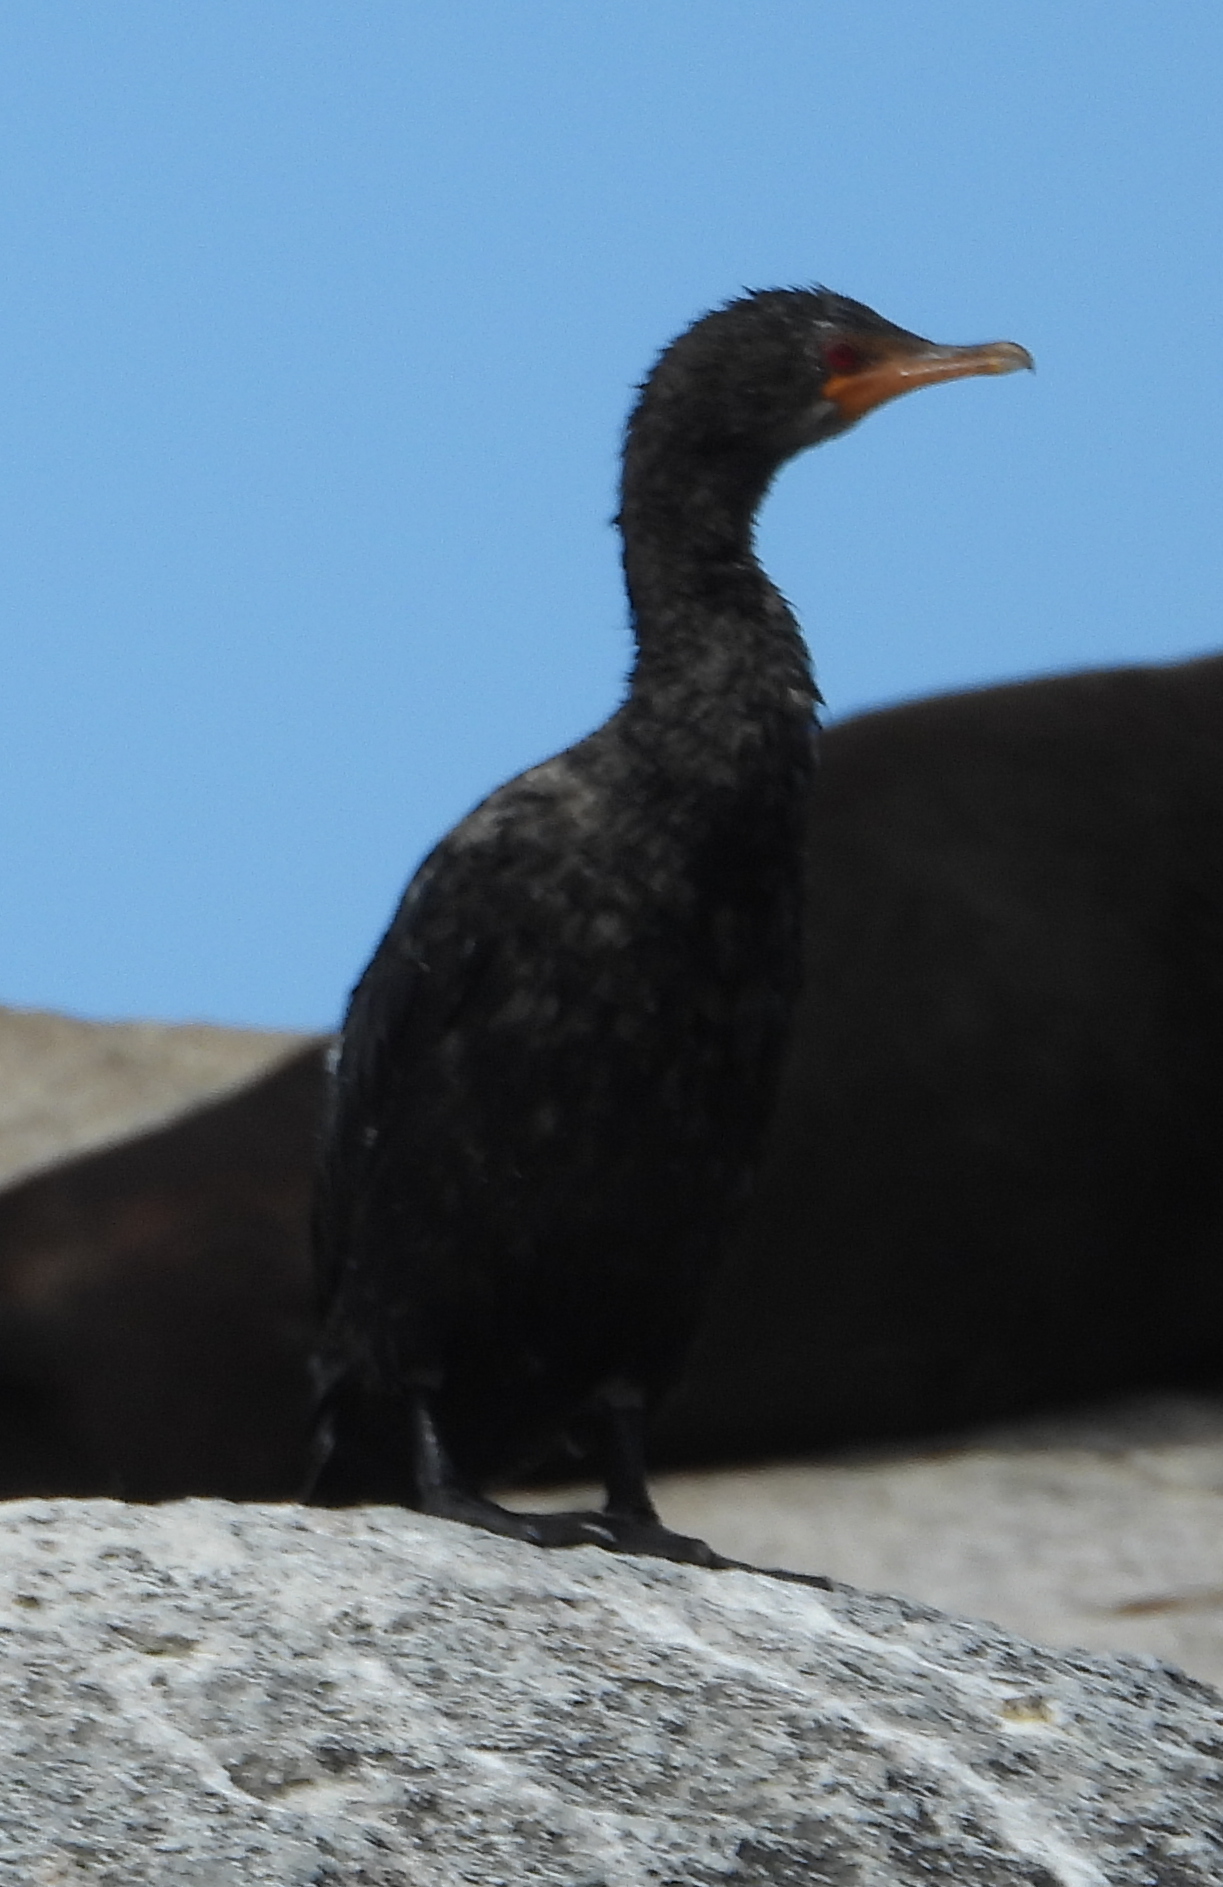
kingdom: Animalia
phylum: Chordata
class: Aves
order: Suliformes
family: Phalacrocoracidae
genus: Microcarbo
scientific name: Microcarbo coronatus
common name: Crowned cormorant
